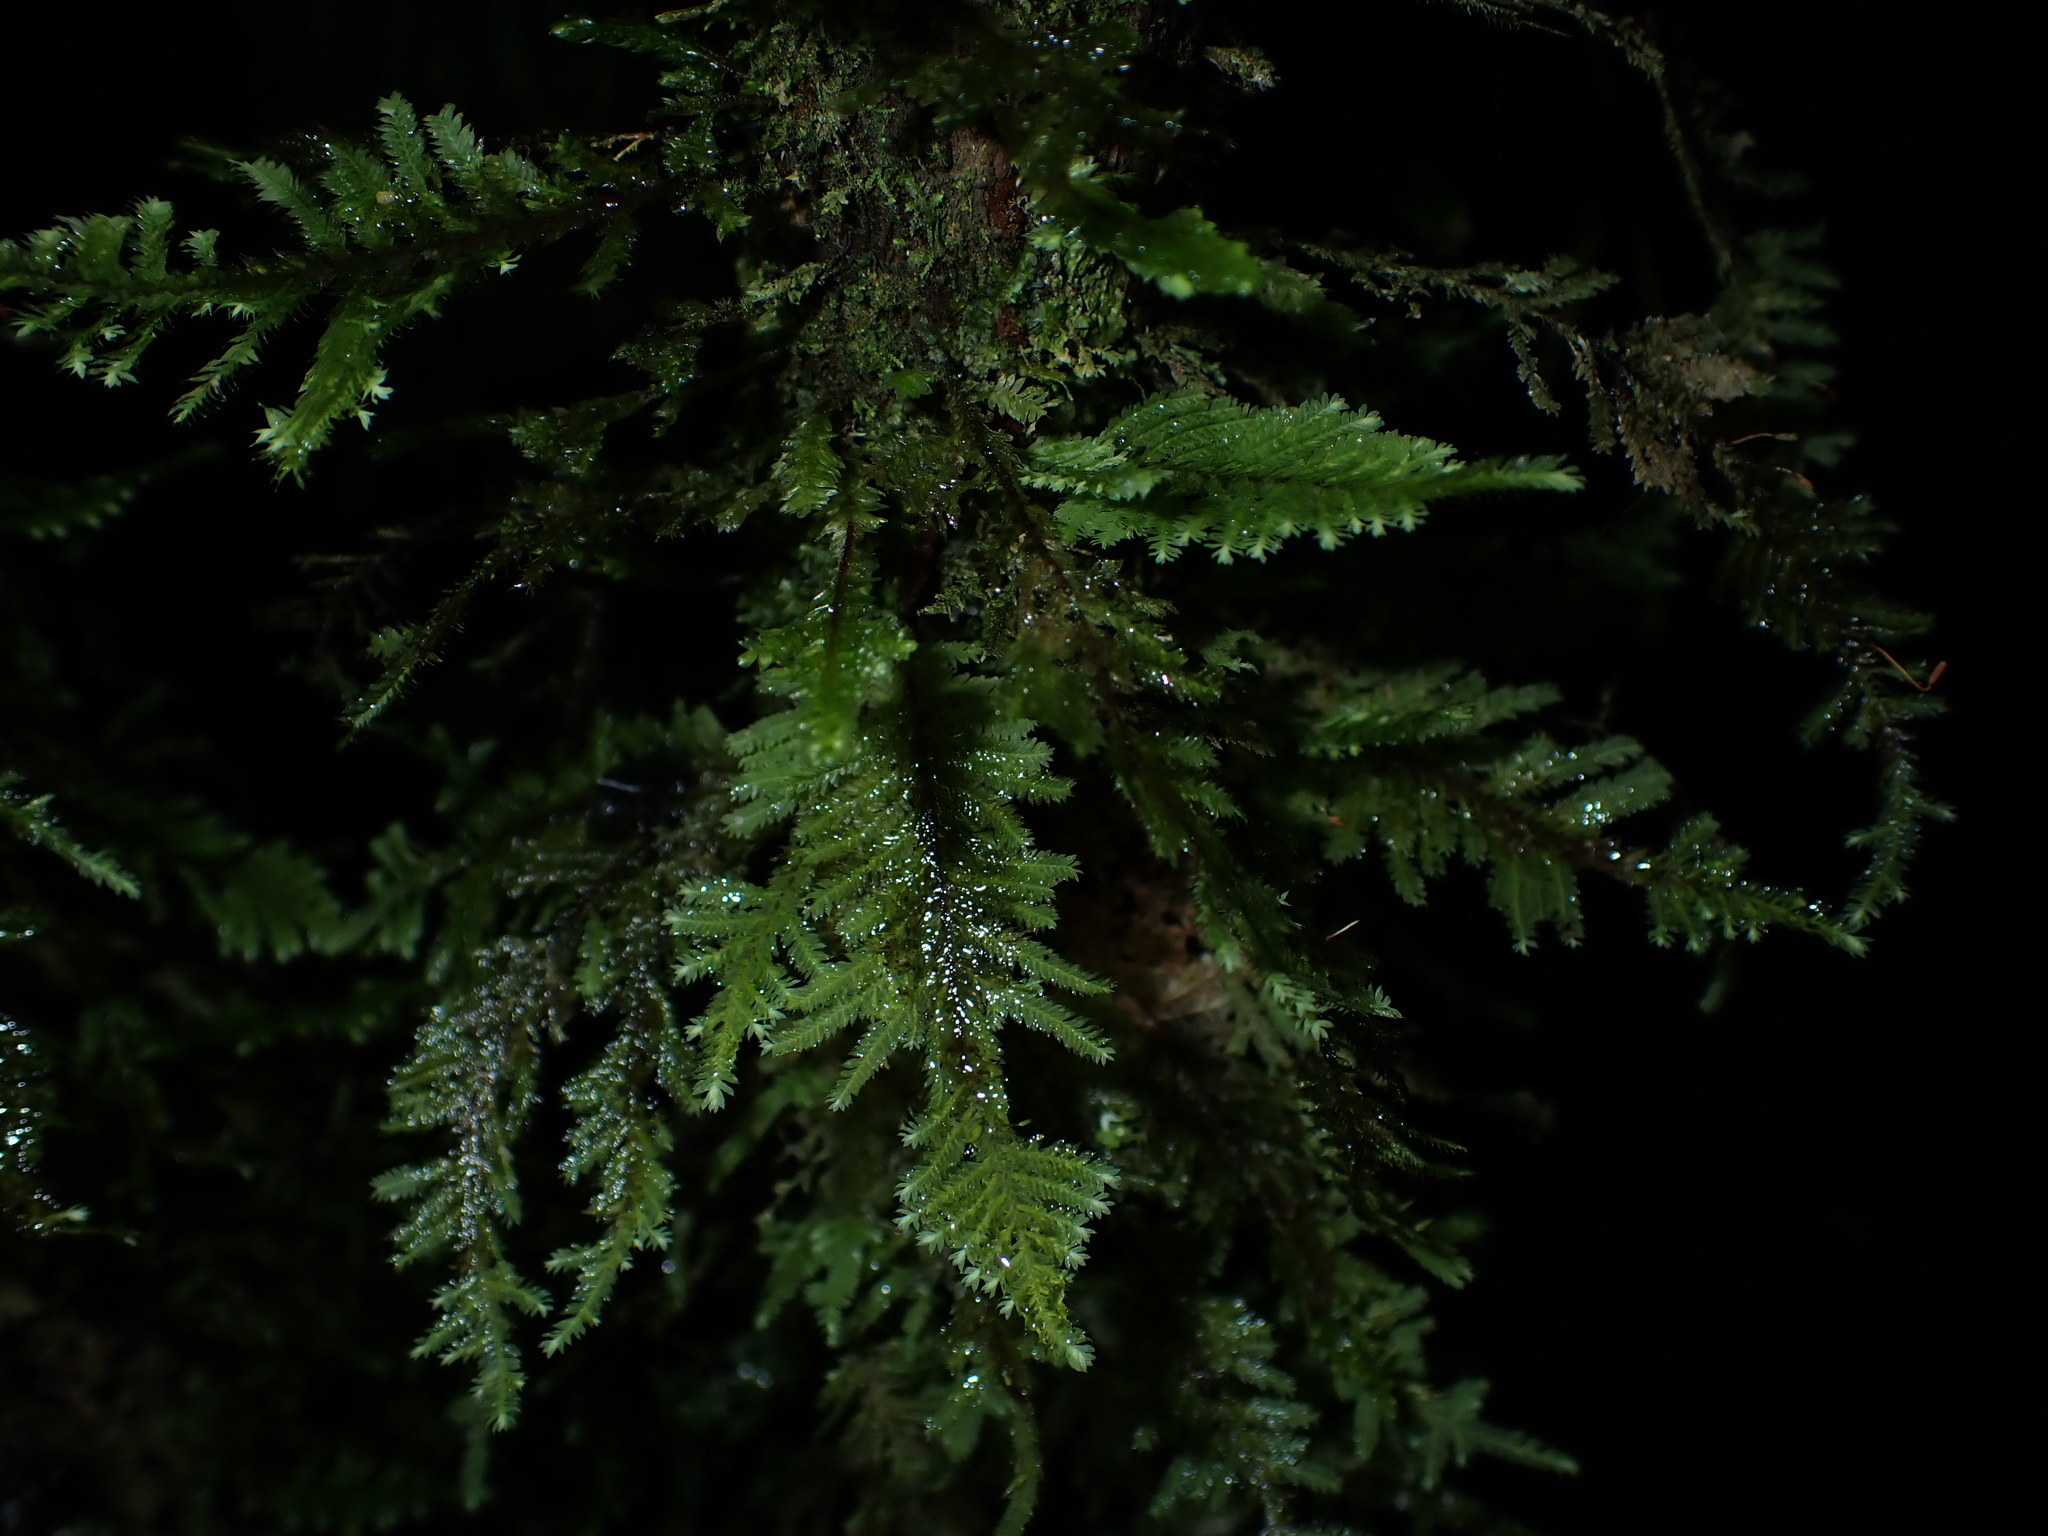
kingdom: Plantae
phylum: Bryophyta
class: Bryopsida
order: Hypopterygiales
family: Hypopterygiaceae
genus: Lopidium
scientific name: Lopidium concinnum
